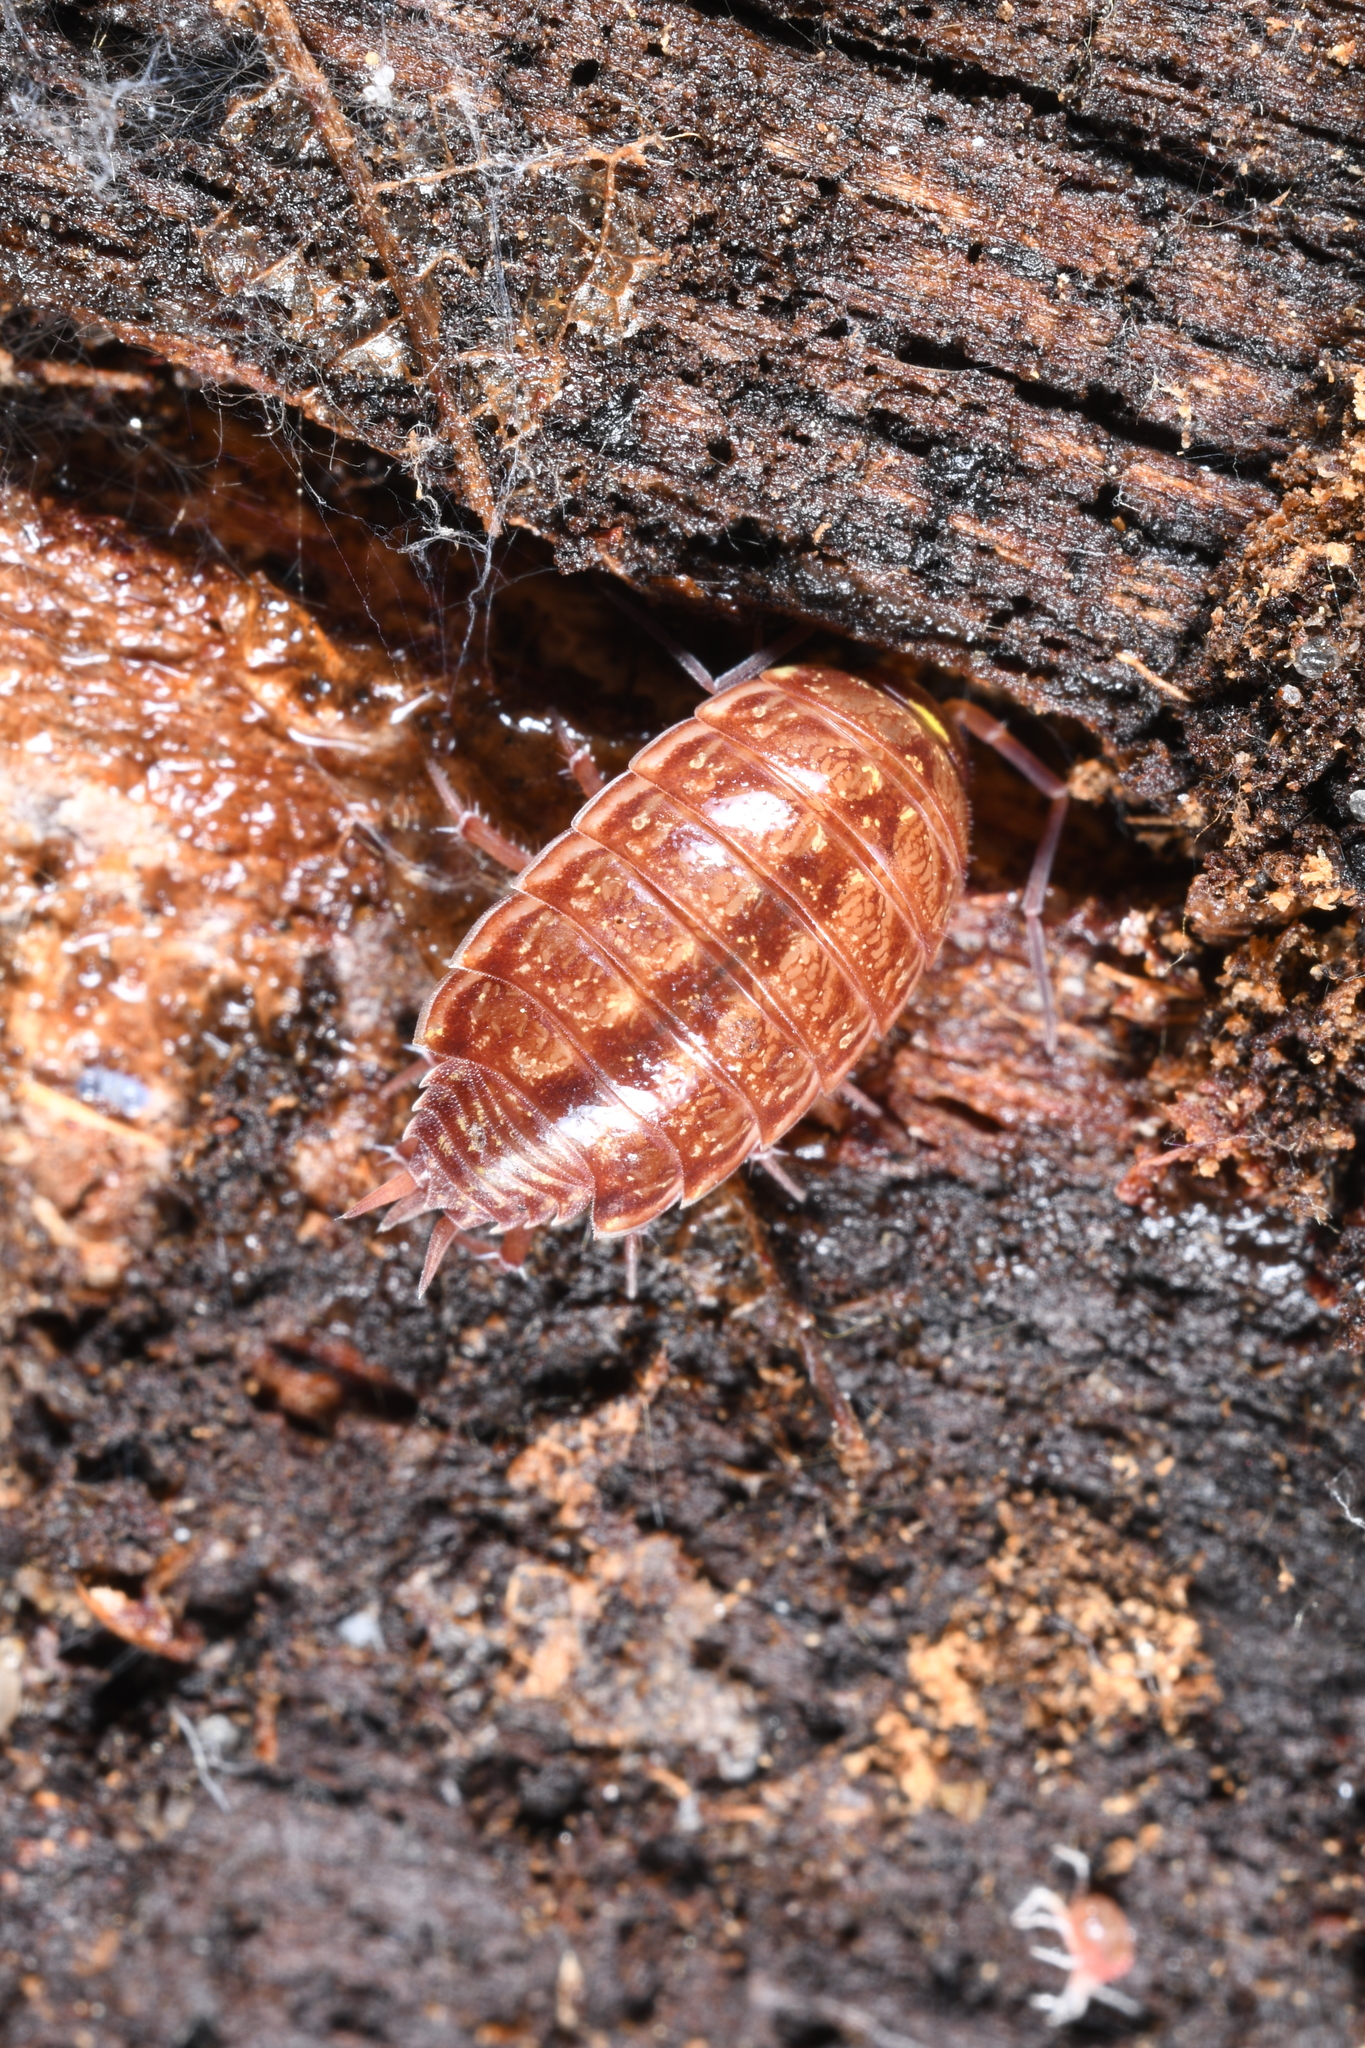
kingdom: Animalia
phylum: Arthropoda
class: Malacostraca
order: Isopoda
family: Philosciidae
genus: Philoscia
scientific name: Philoscia muscorum
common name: Common striped woodlouse
